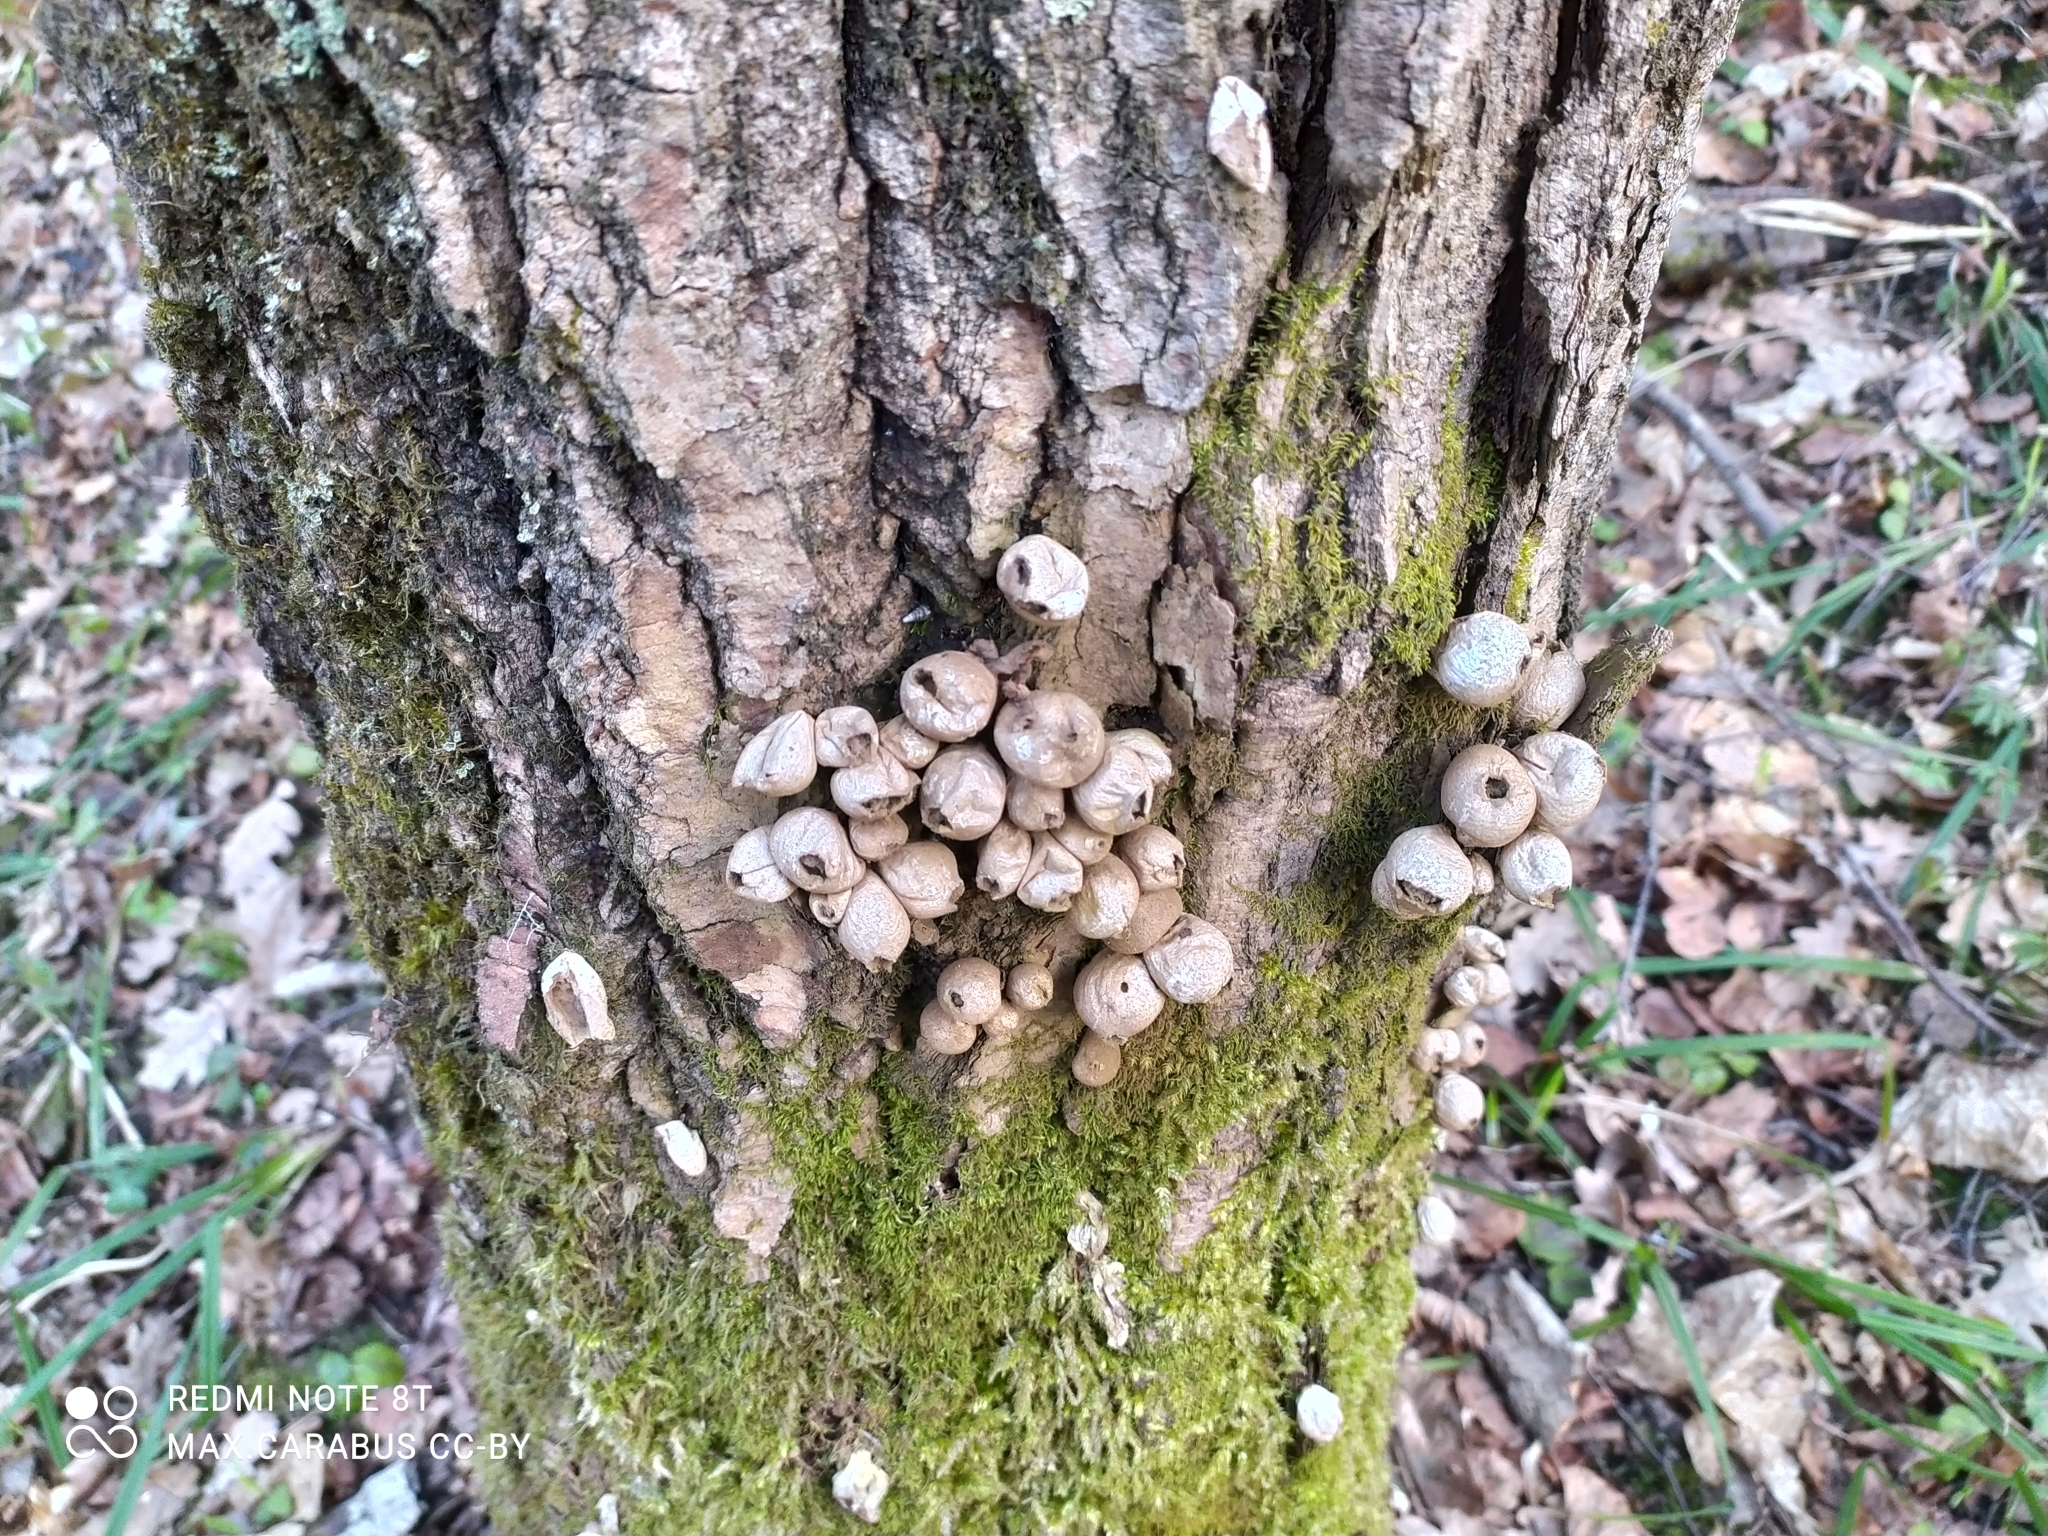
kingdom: Fungi
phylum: Basidiomycota
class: Agaricomycetes
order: Agaricales
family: Lycoperdaceae
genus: Apioperdon
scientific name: Apioperdon pyriforme
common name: Pear-shaped puffball
